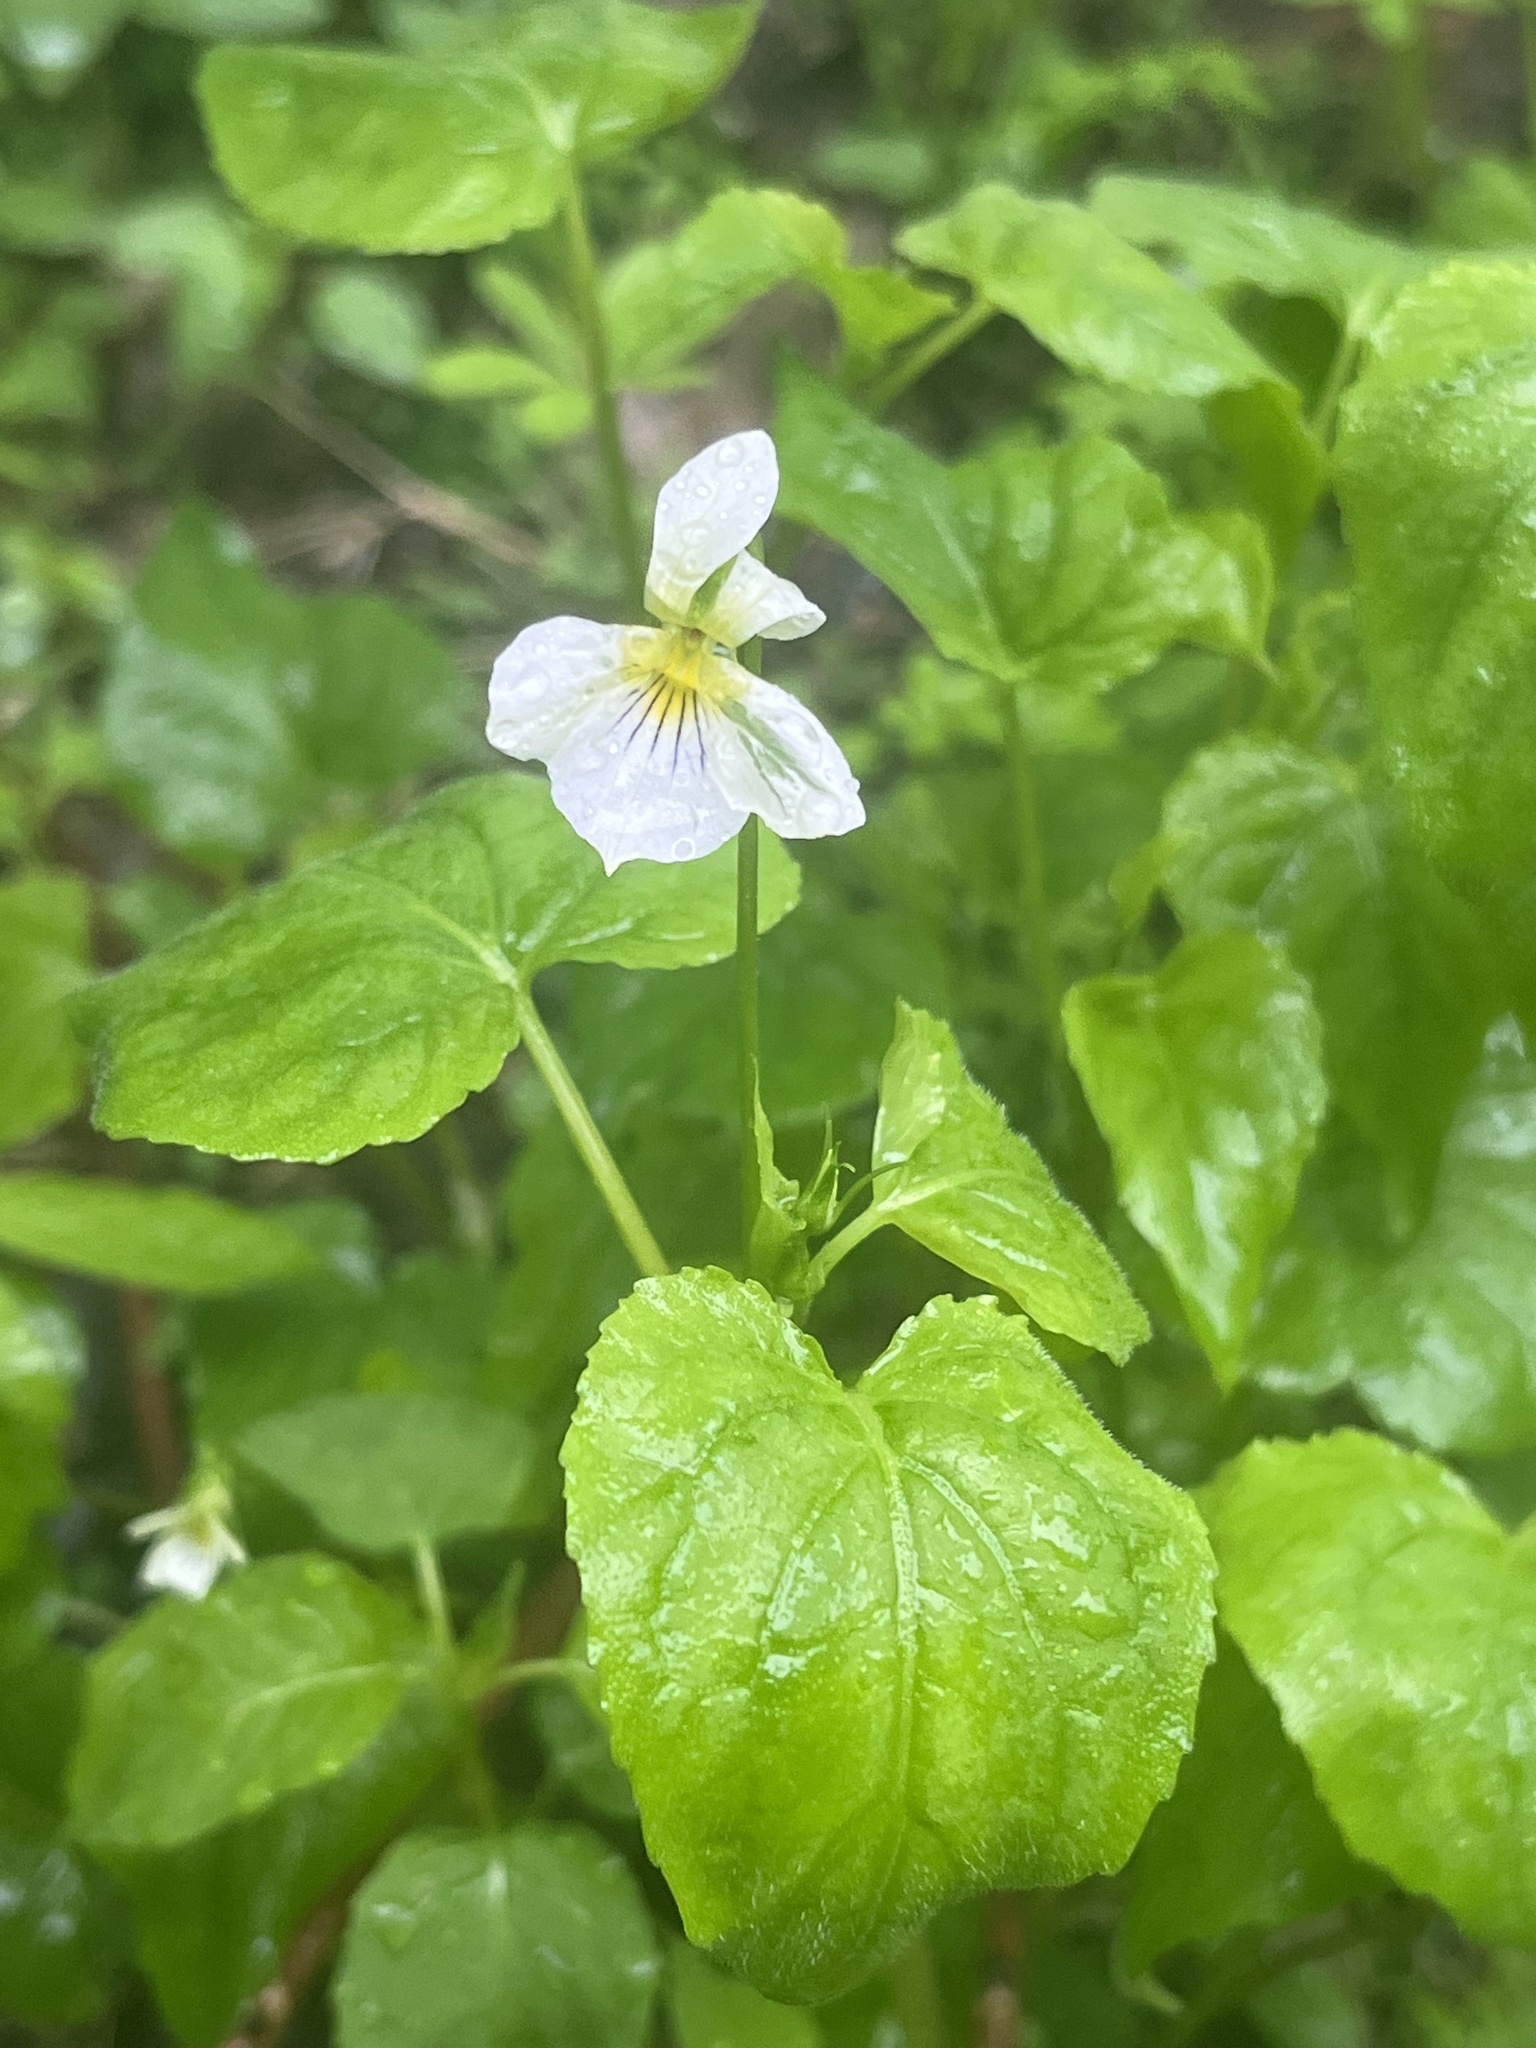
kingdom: Plantae
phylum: Tracheophyta
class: Magnoliopsida
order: Malpighiales
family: Violaceae
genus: Viola
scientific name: Viola canadensis
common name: Canada violet
